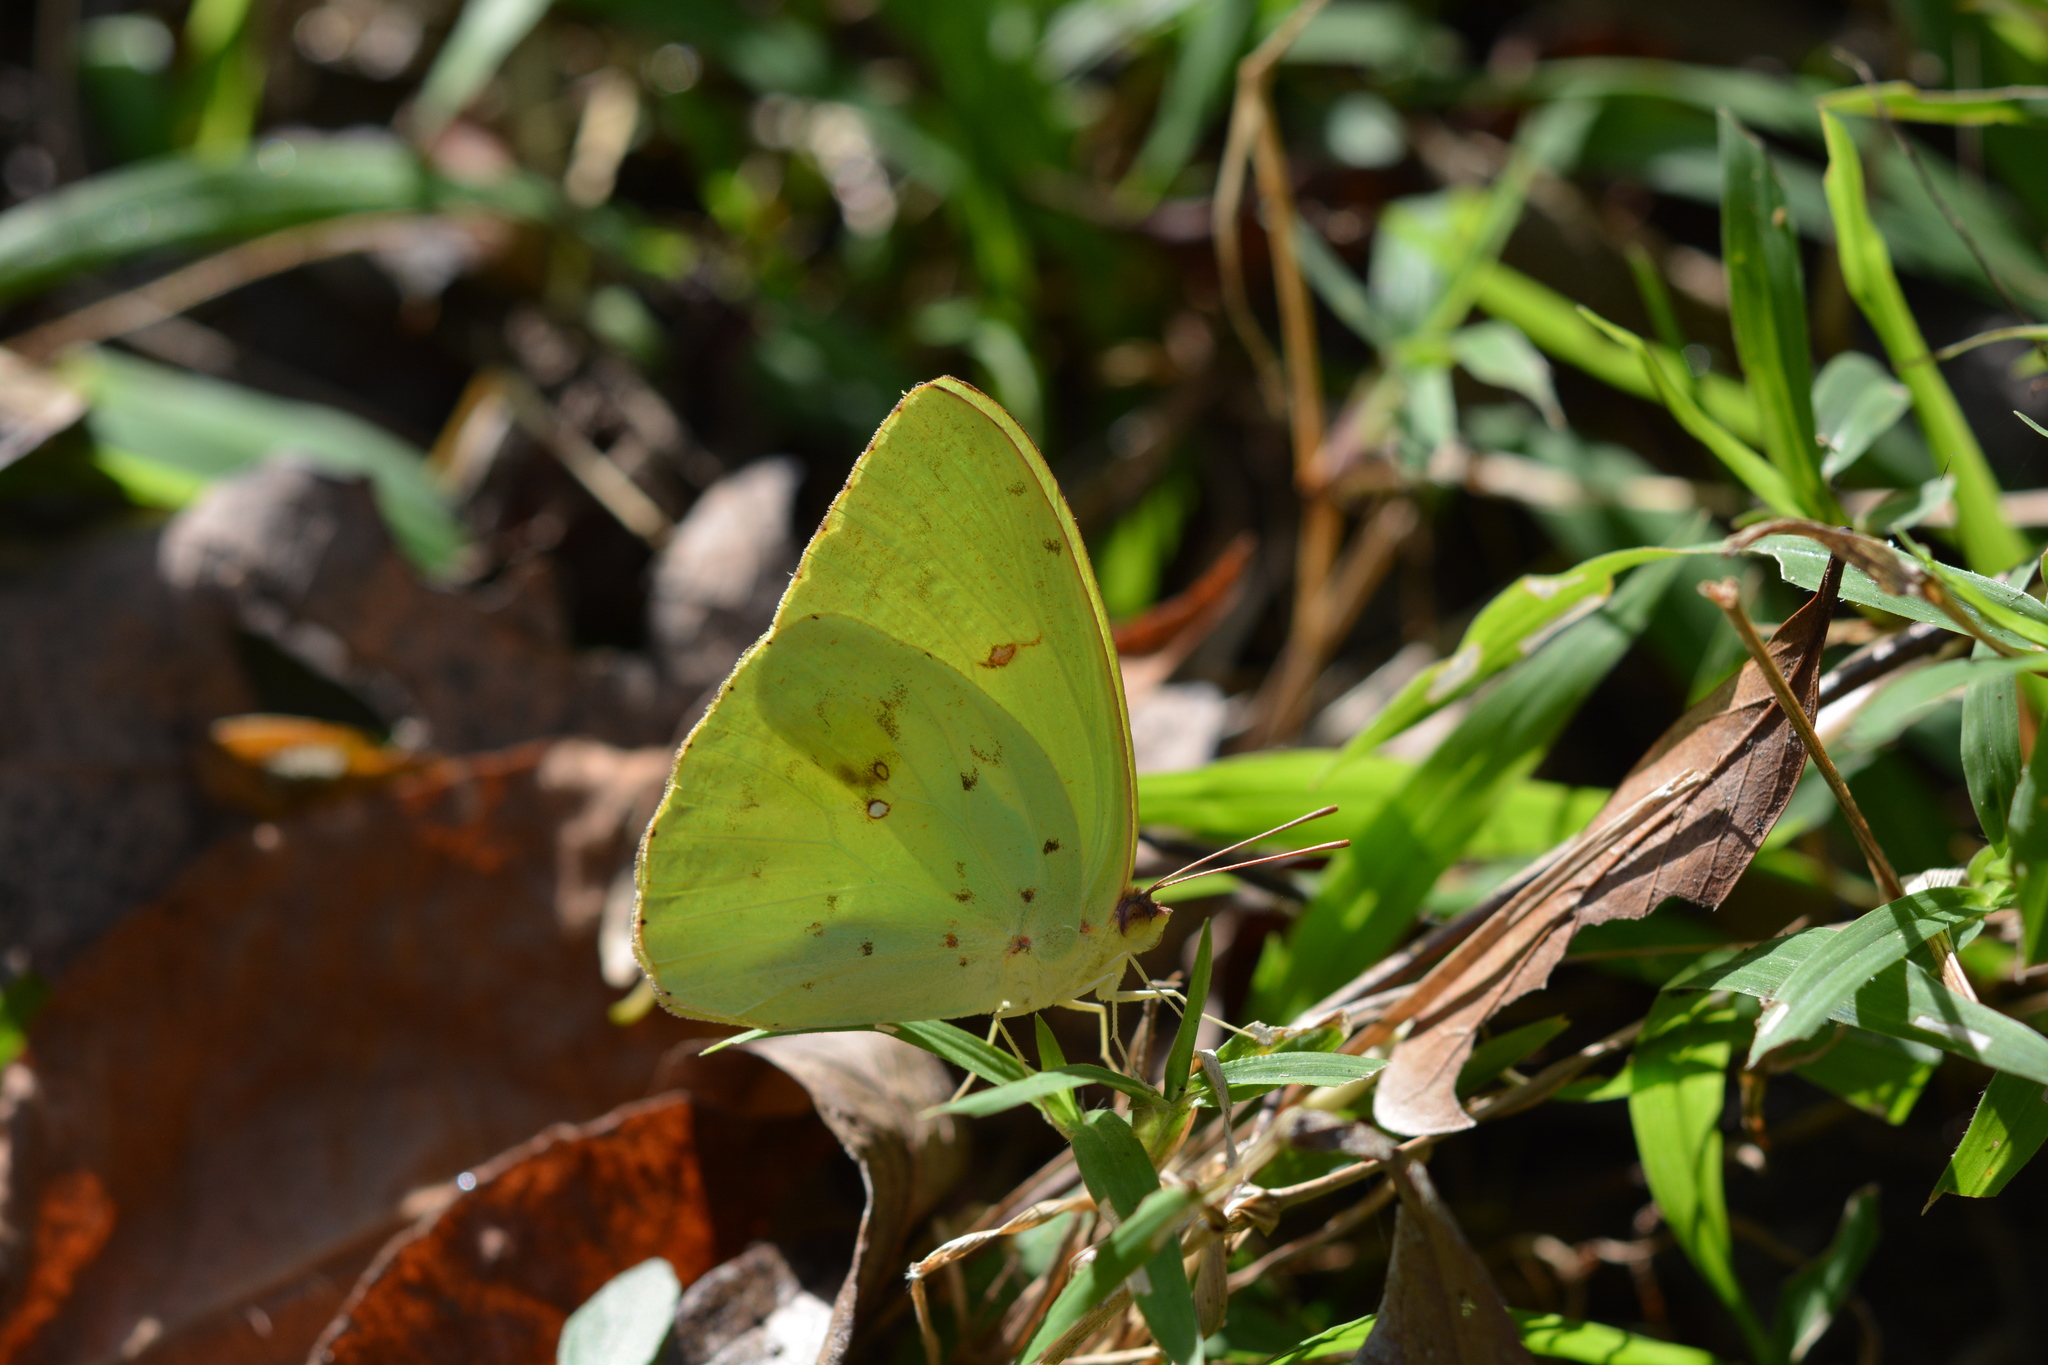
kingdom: Animalia
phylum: Arthropoda
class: Insecta
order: Lepidoptera
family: Pieridae
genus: Phoebis
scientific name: Phoebis sennae
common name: Cloudless sulphur
